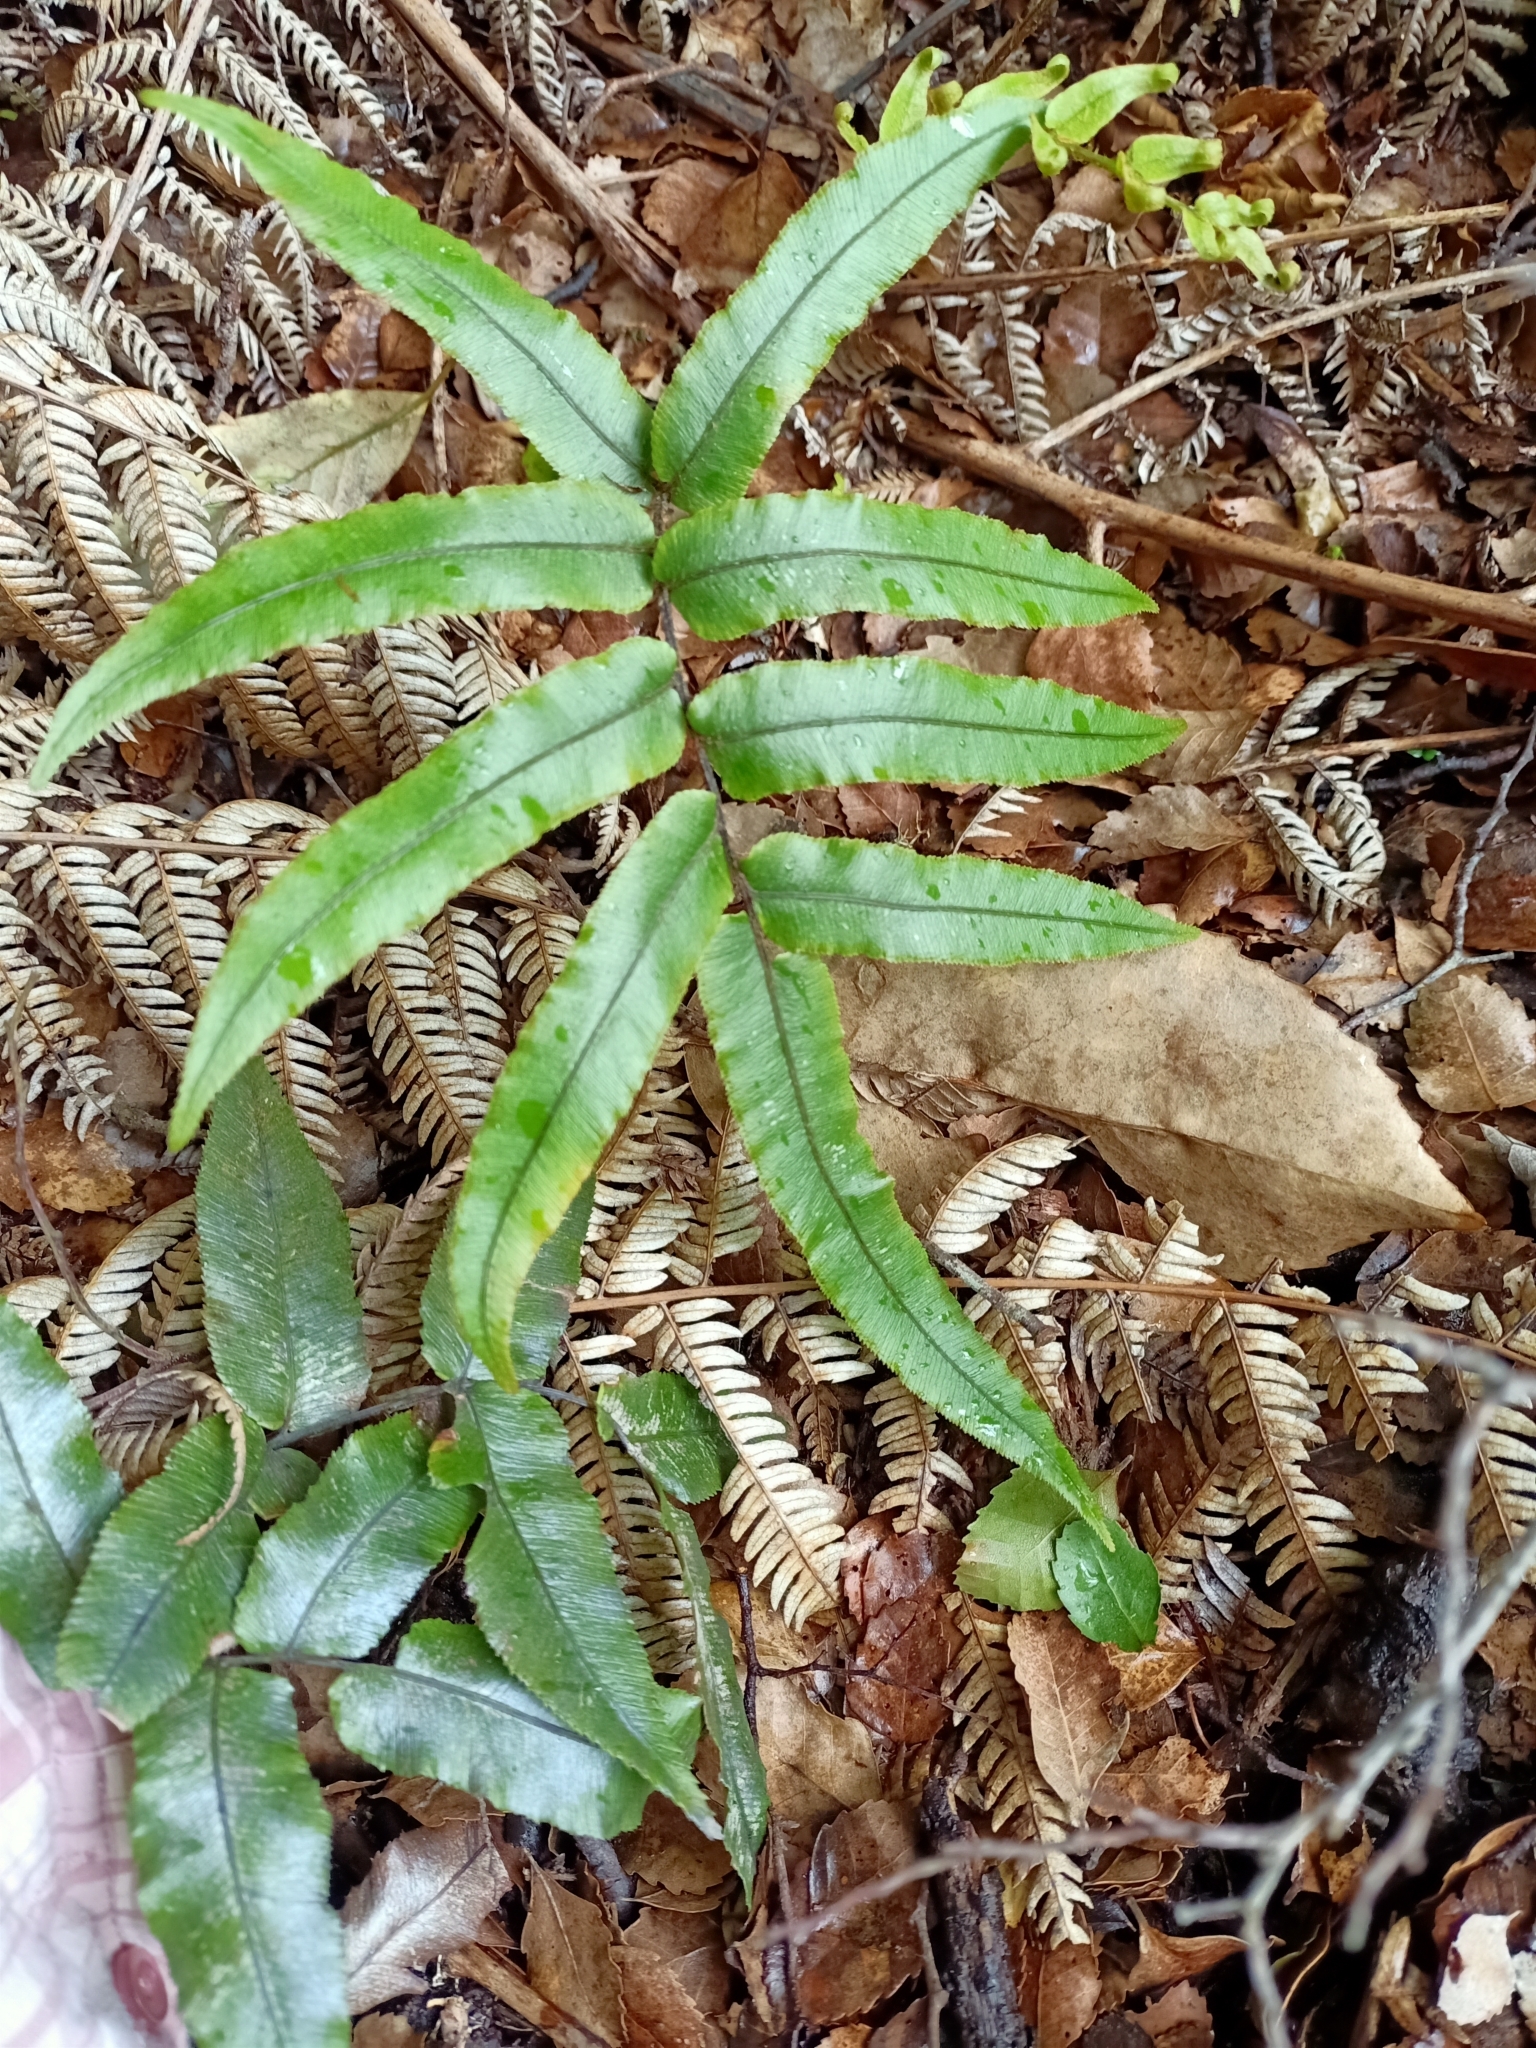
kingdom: Plantae
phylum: Tracheophyta
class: Polypodiopsida
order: Polypodiales
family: Blechnaceae
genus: Parablechnum
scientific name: Parablechnum procerum
